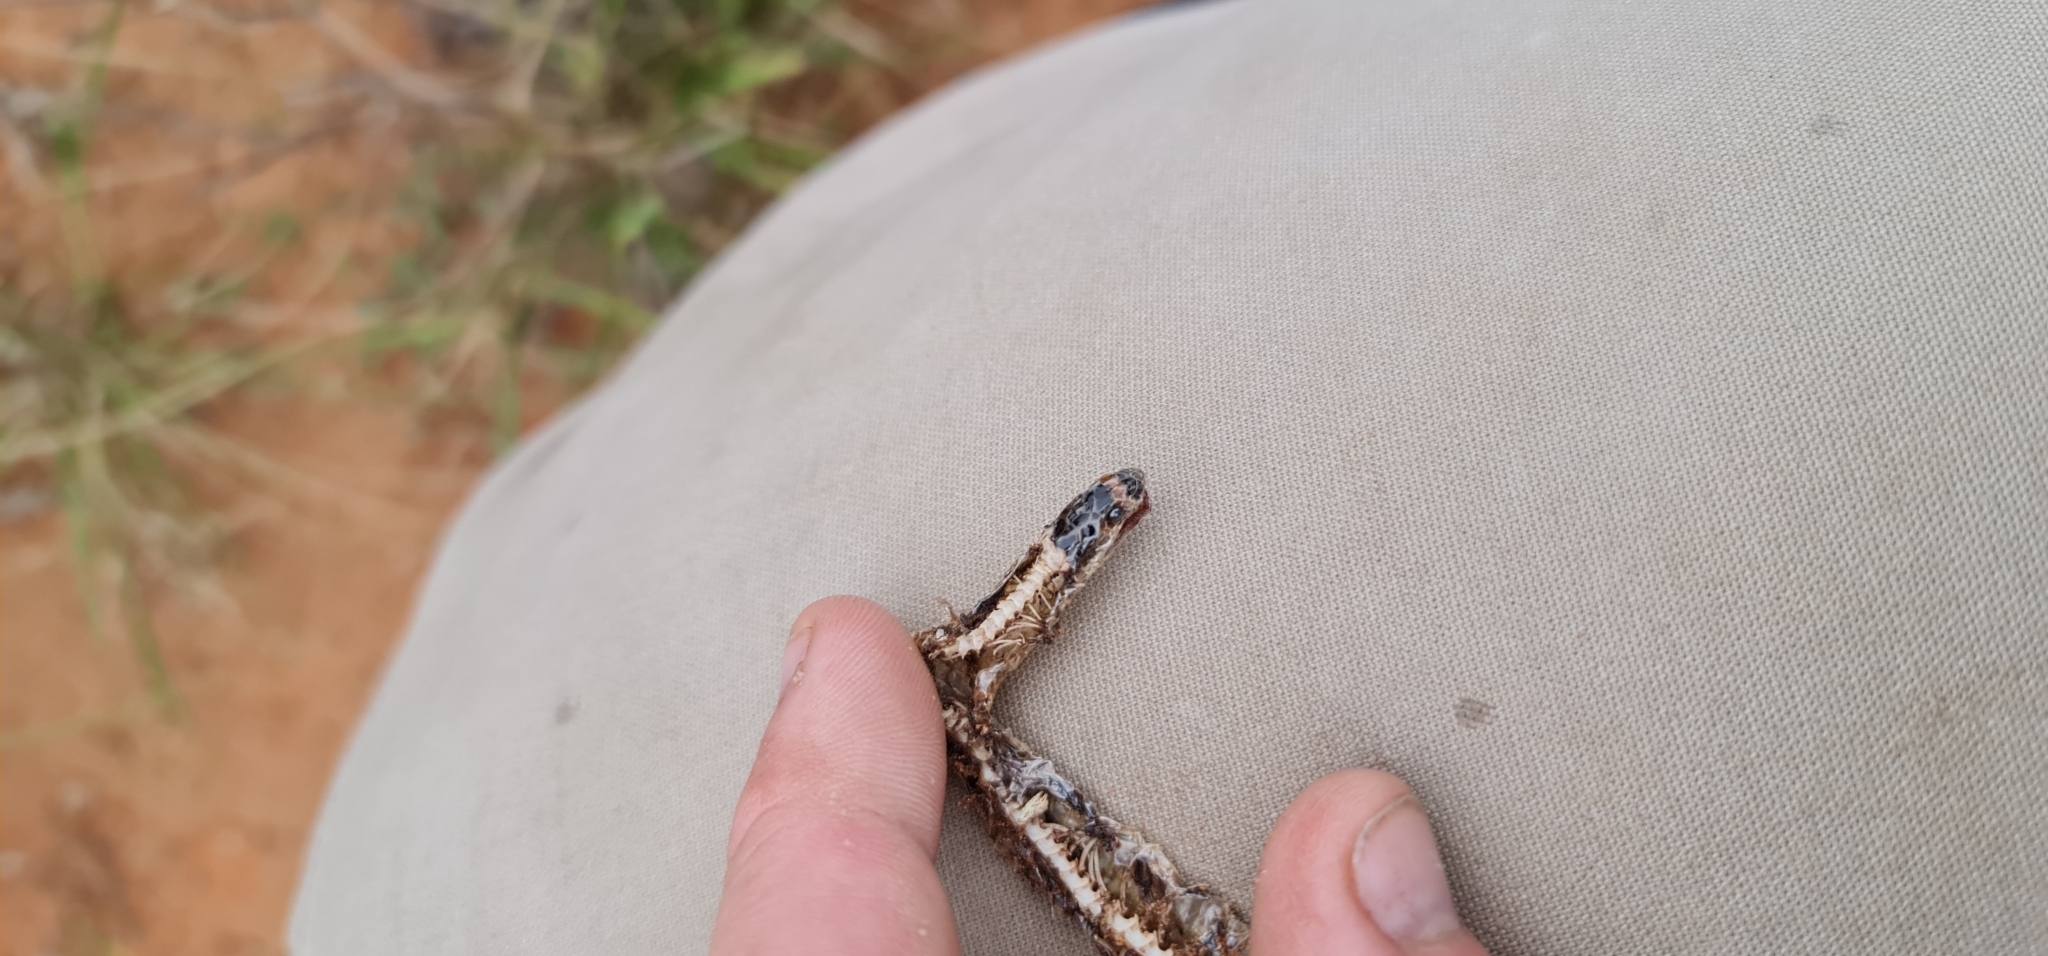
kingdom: Animalia
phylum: Chordata
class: Squamata
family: Elapidae
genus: Suta
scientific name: Suta spectabilis
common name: Bush’s hooded snake
